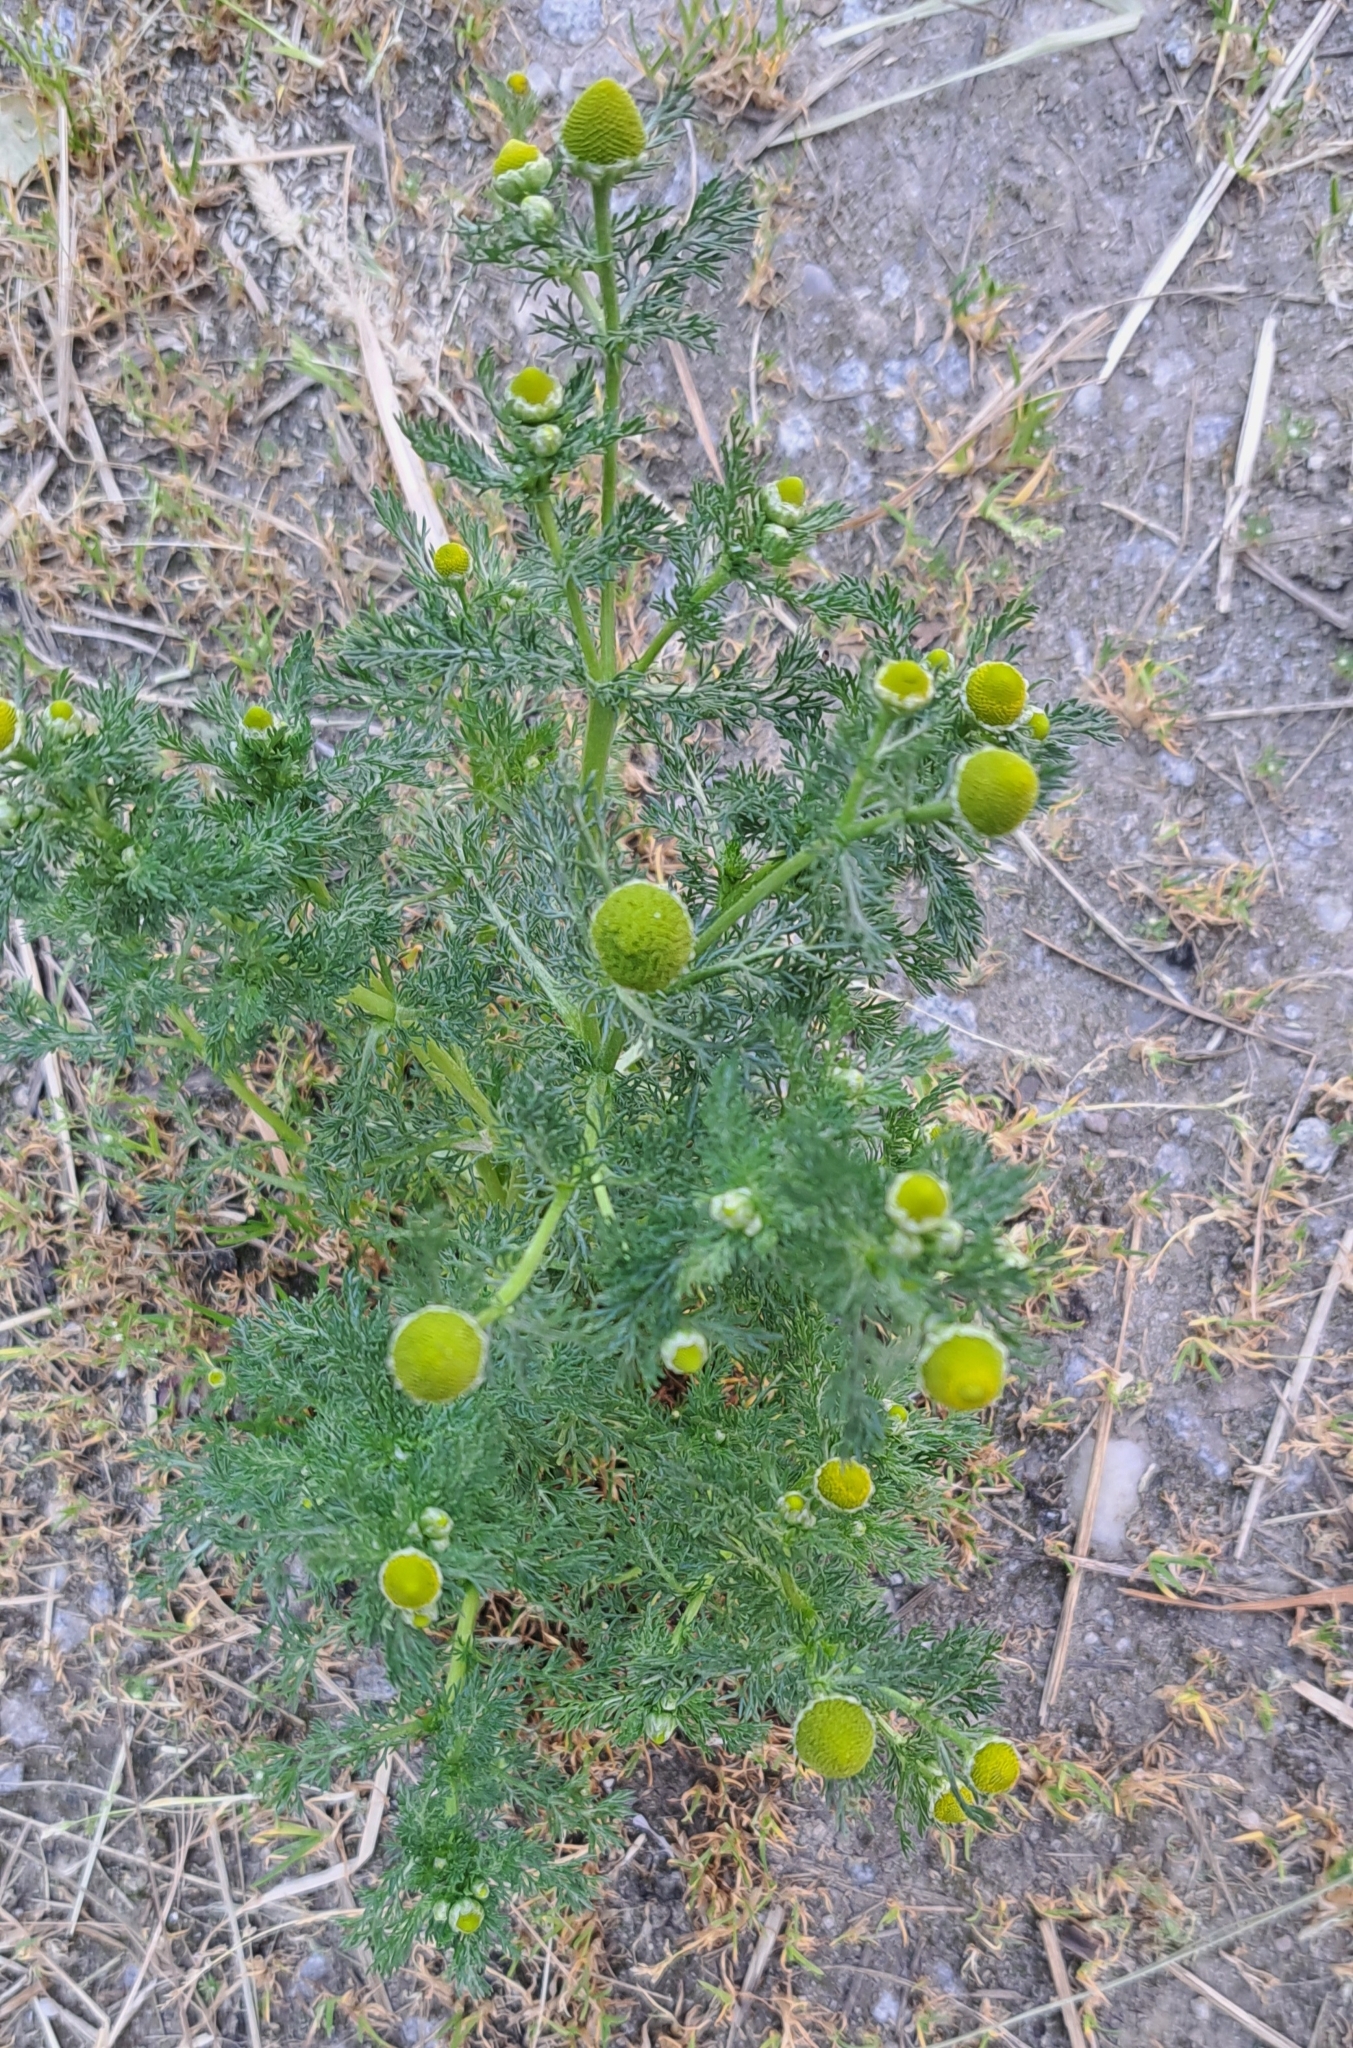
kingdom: Plantae
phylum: Tracheophyta
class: Magnoliopsida
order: Asterales
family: Asteraceae
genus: Matricaria
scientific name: Matricaria discoidea
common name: Disc mayweed
